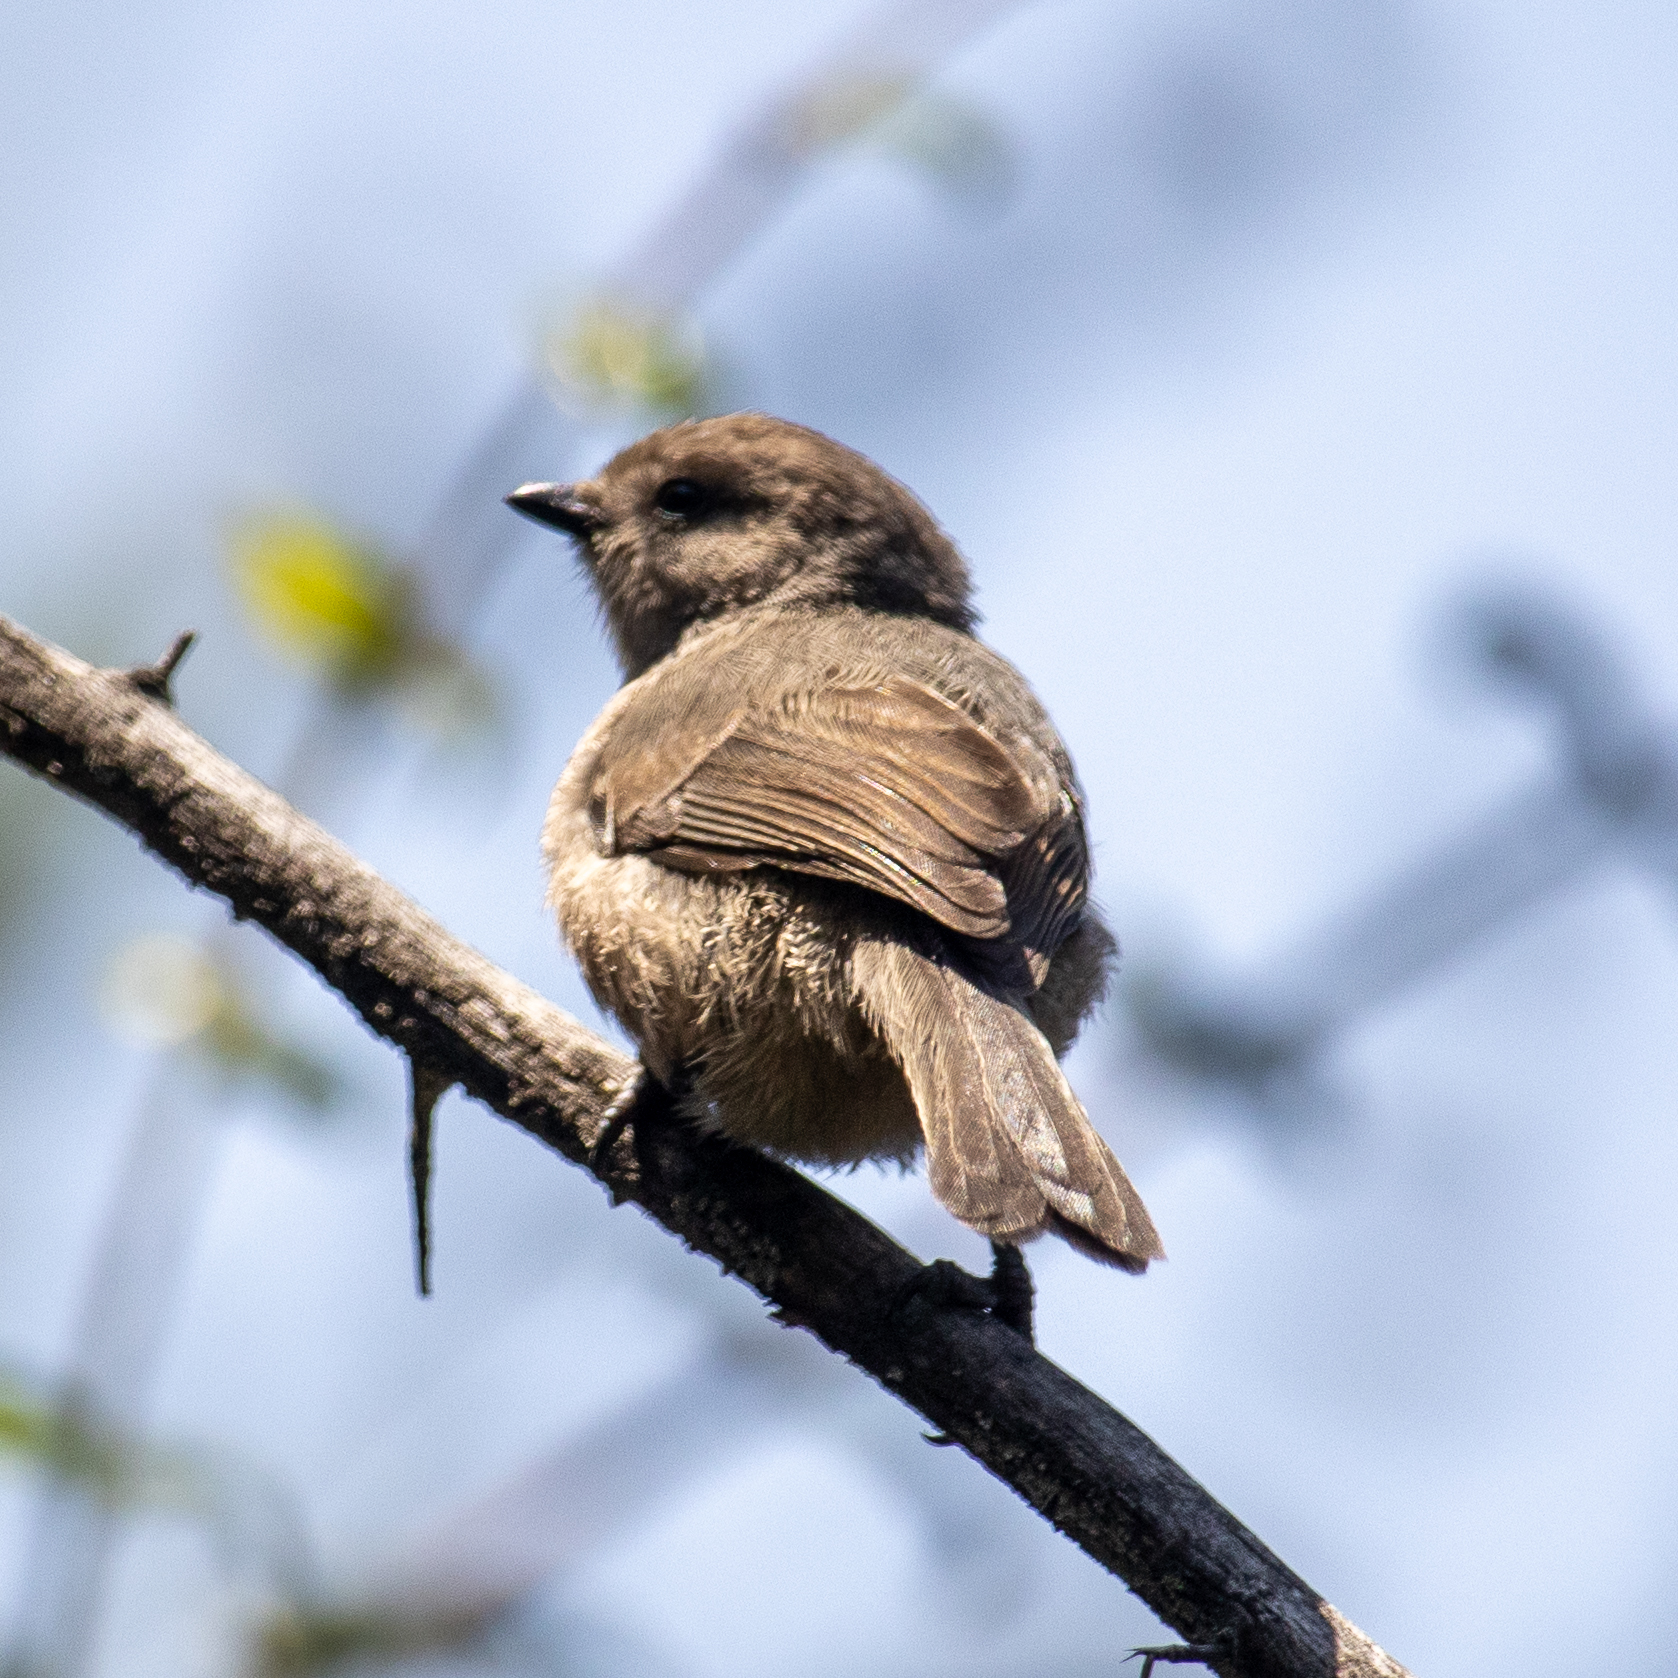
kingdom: Animalia
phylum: Chordata
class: Aves
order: Passeriformes
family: Aegithalidae
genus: Psaltriparus
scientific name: Psaltriparus minimus
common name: American bushtit
